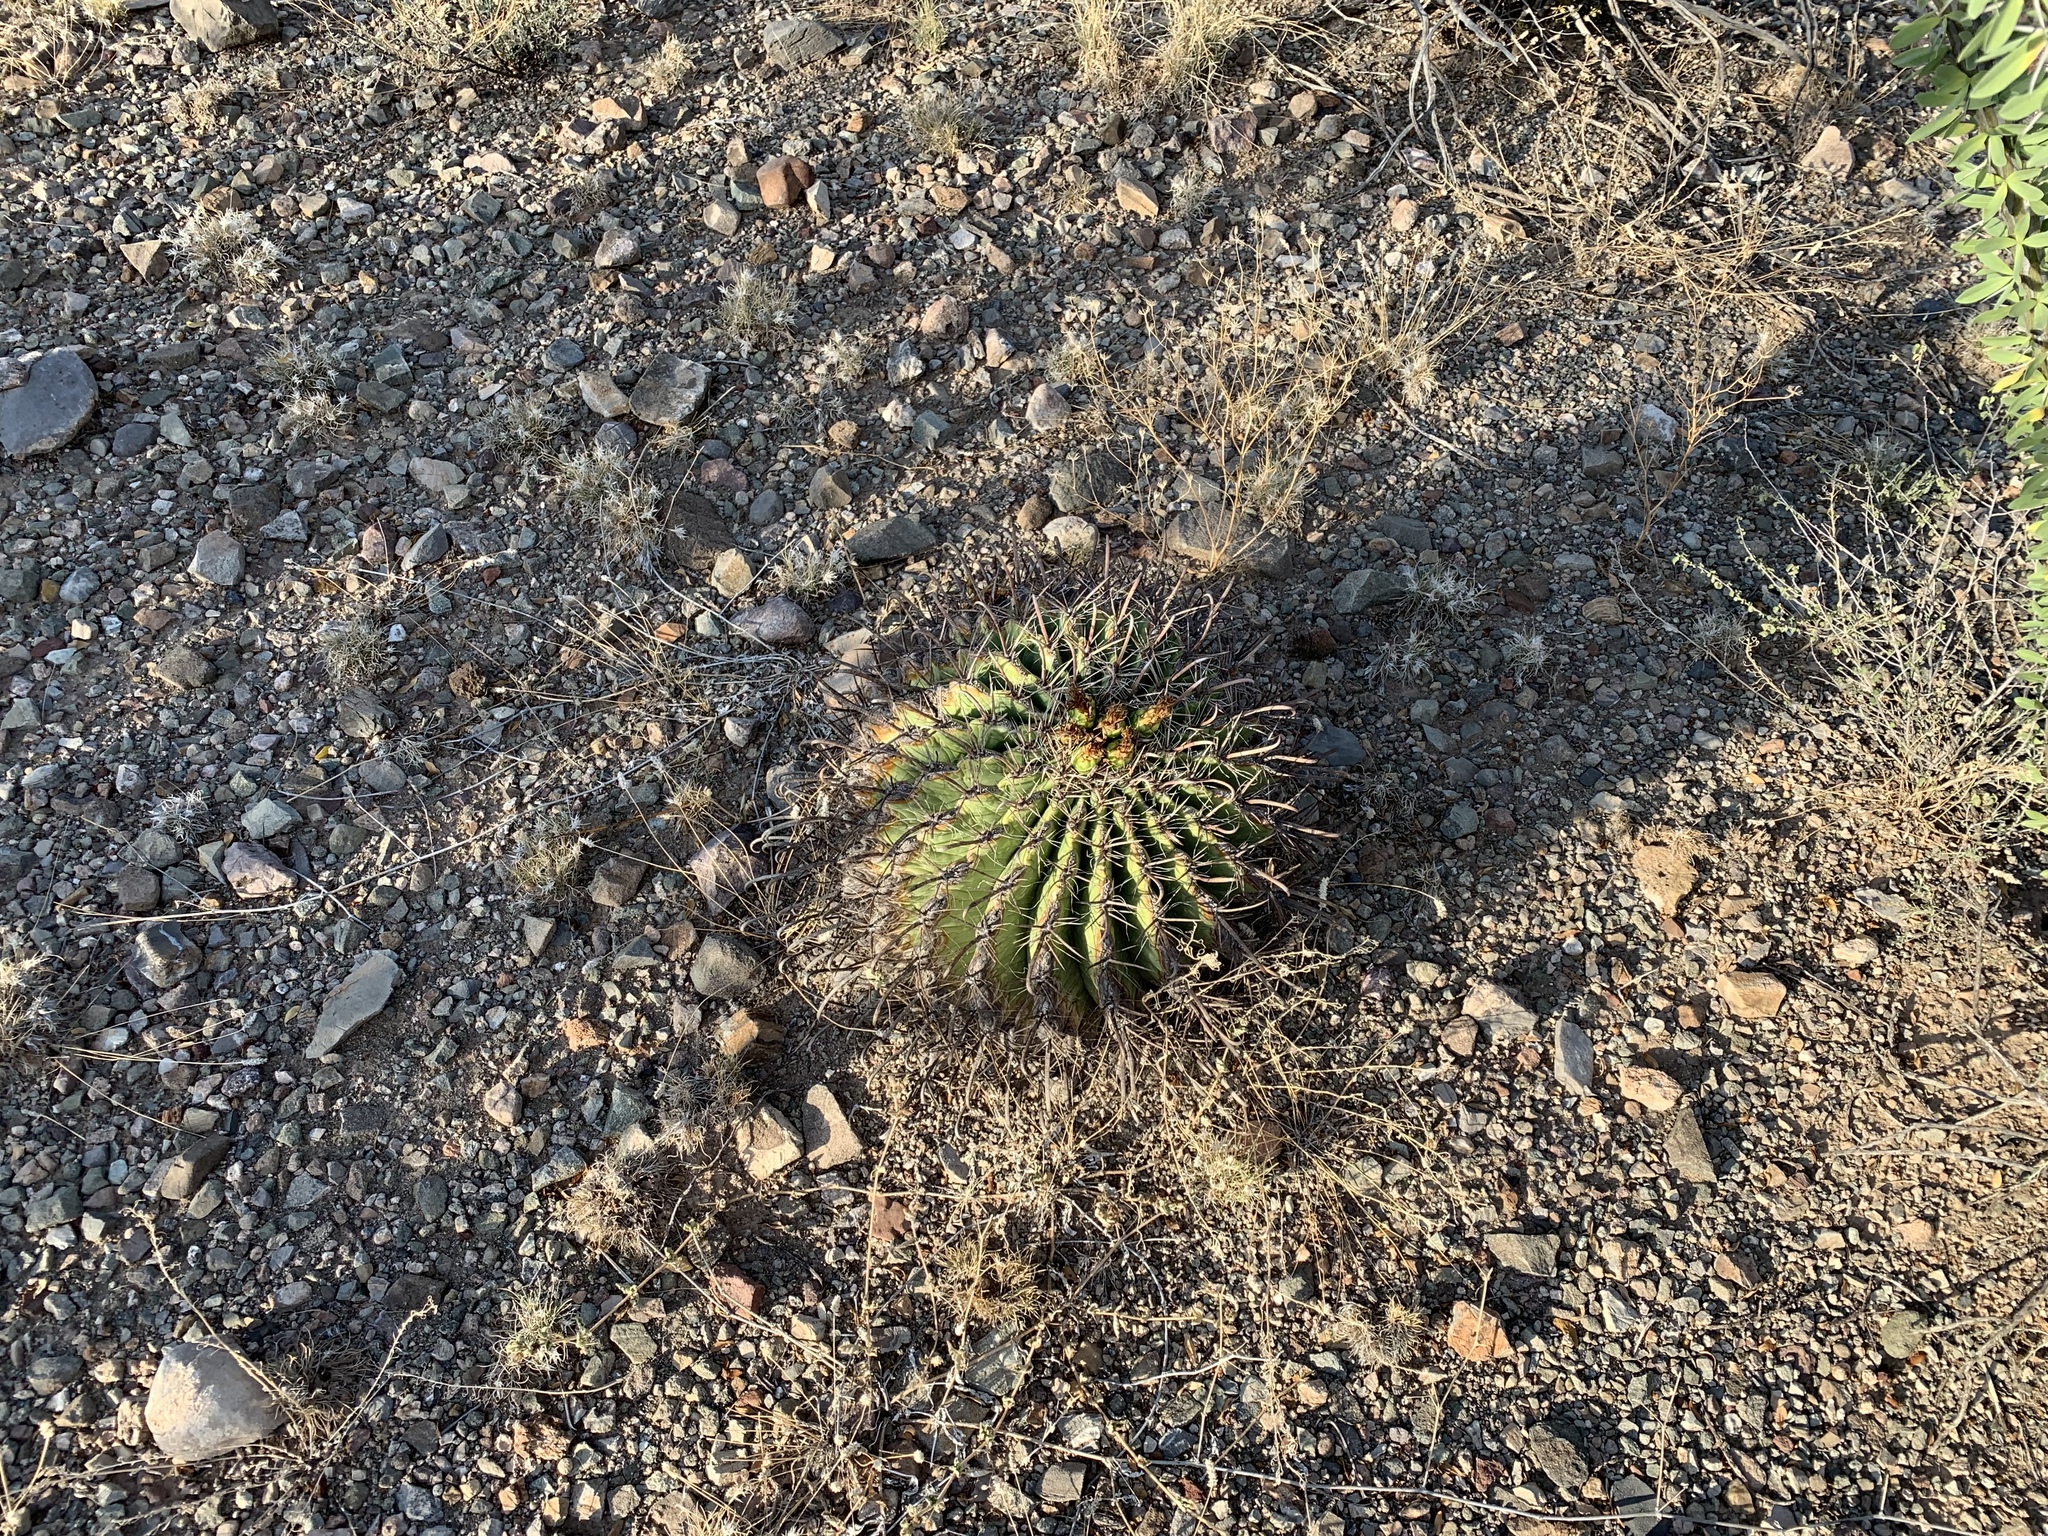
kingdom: Plantae
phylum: Tracheophyta
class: Magnoliopsida
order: Caryophyllales
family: Cactaceae
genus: Ferocactus
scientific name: Ferocactus wislizeni
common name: Candy barrel cactus
